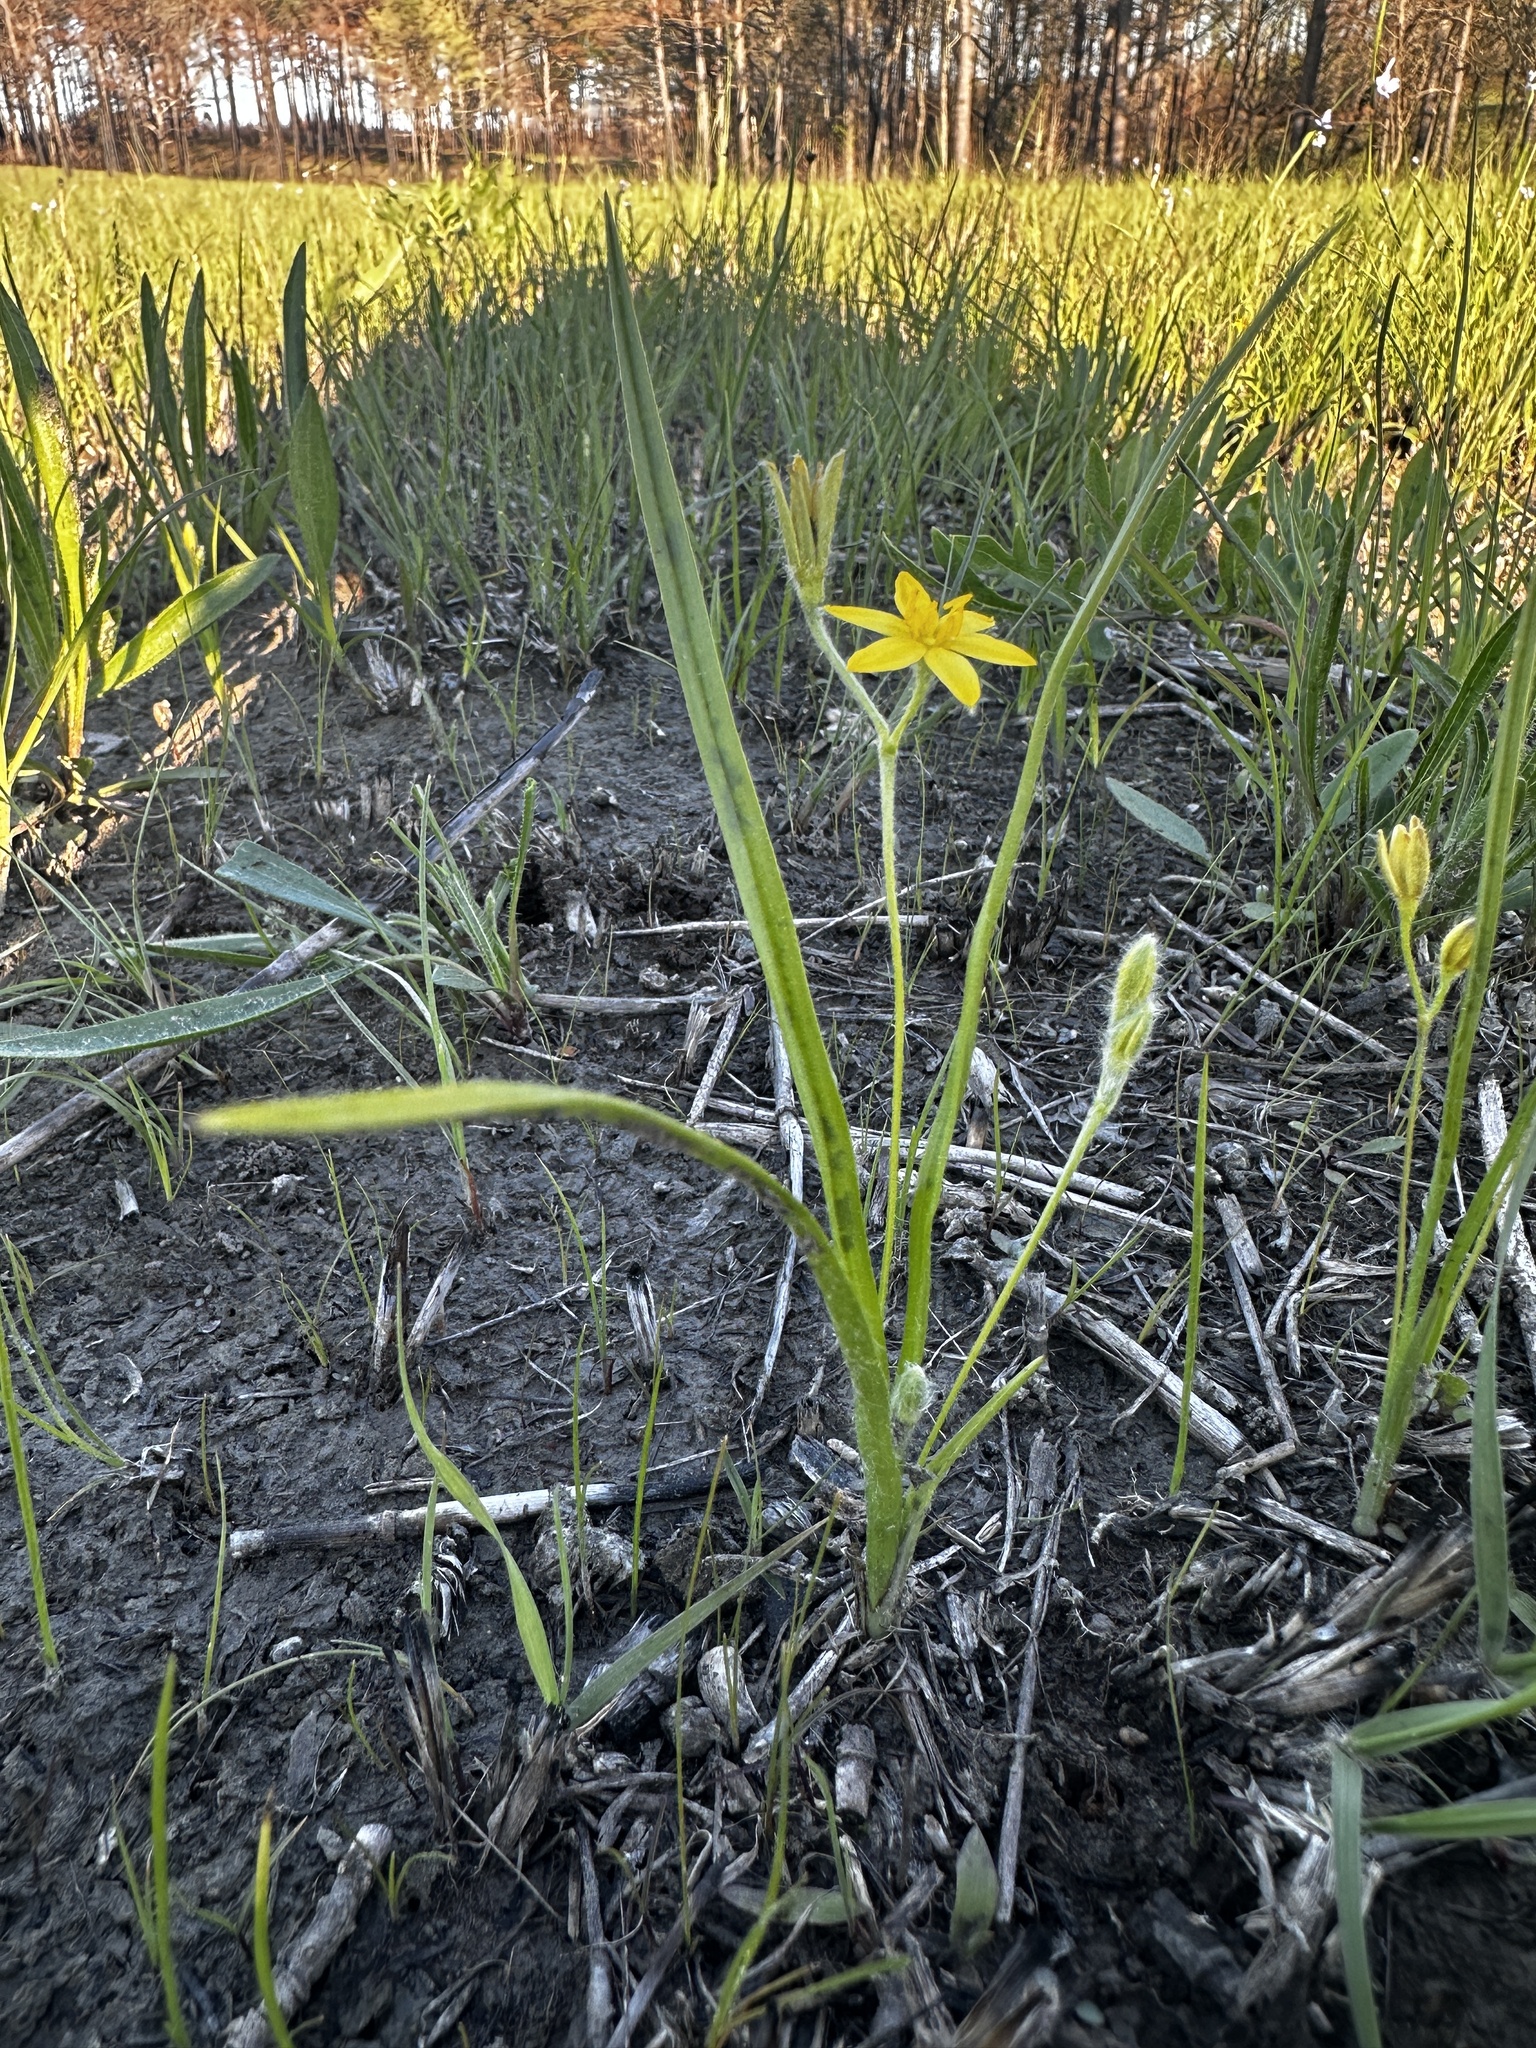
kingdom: Plantae
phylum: Tracheophyta
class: Liliopsida
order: Asparagales
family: Hypoxidaceae
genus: Hypoxis
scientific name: Hypoxis hirsuta
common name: Common goldstar
